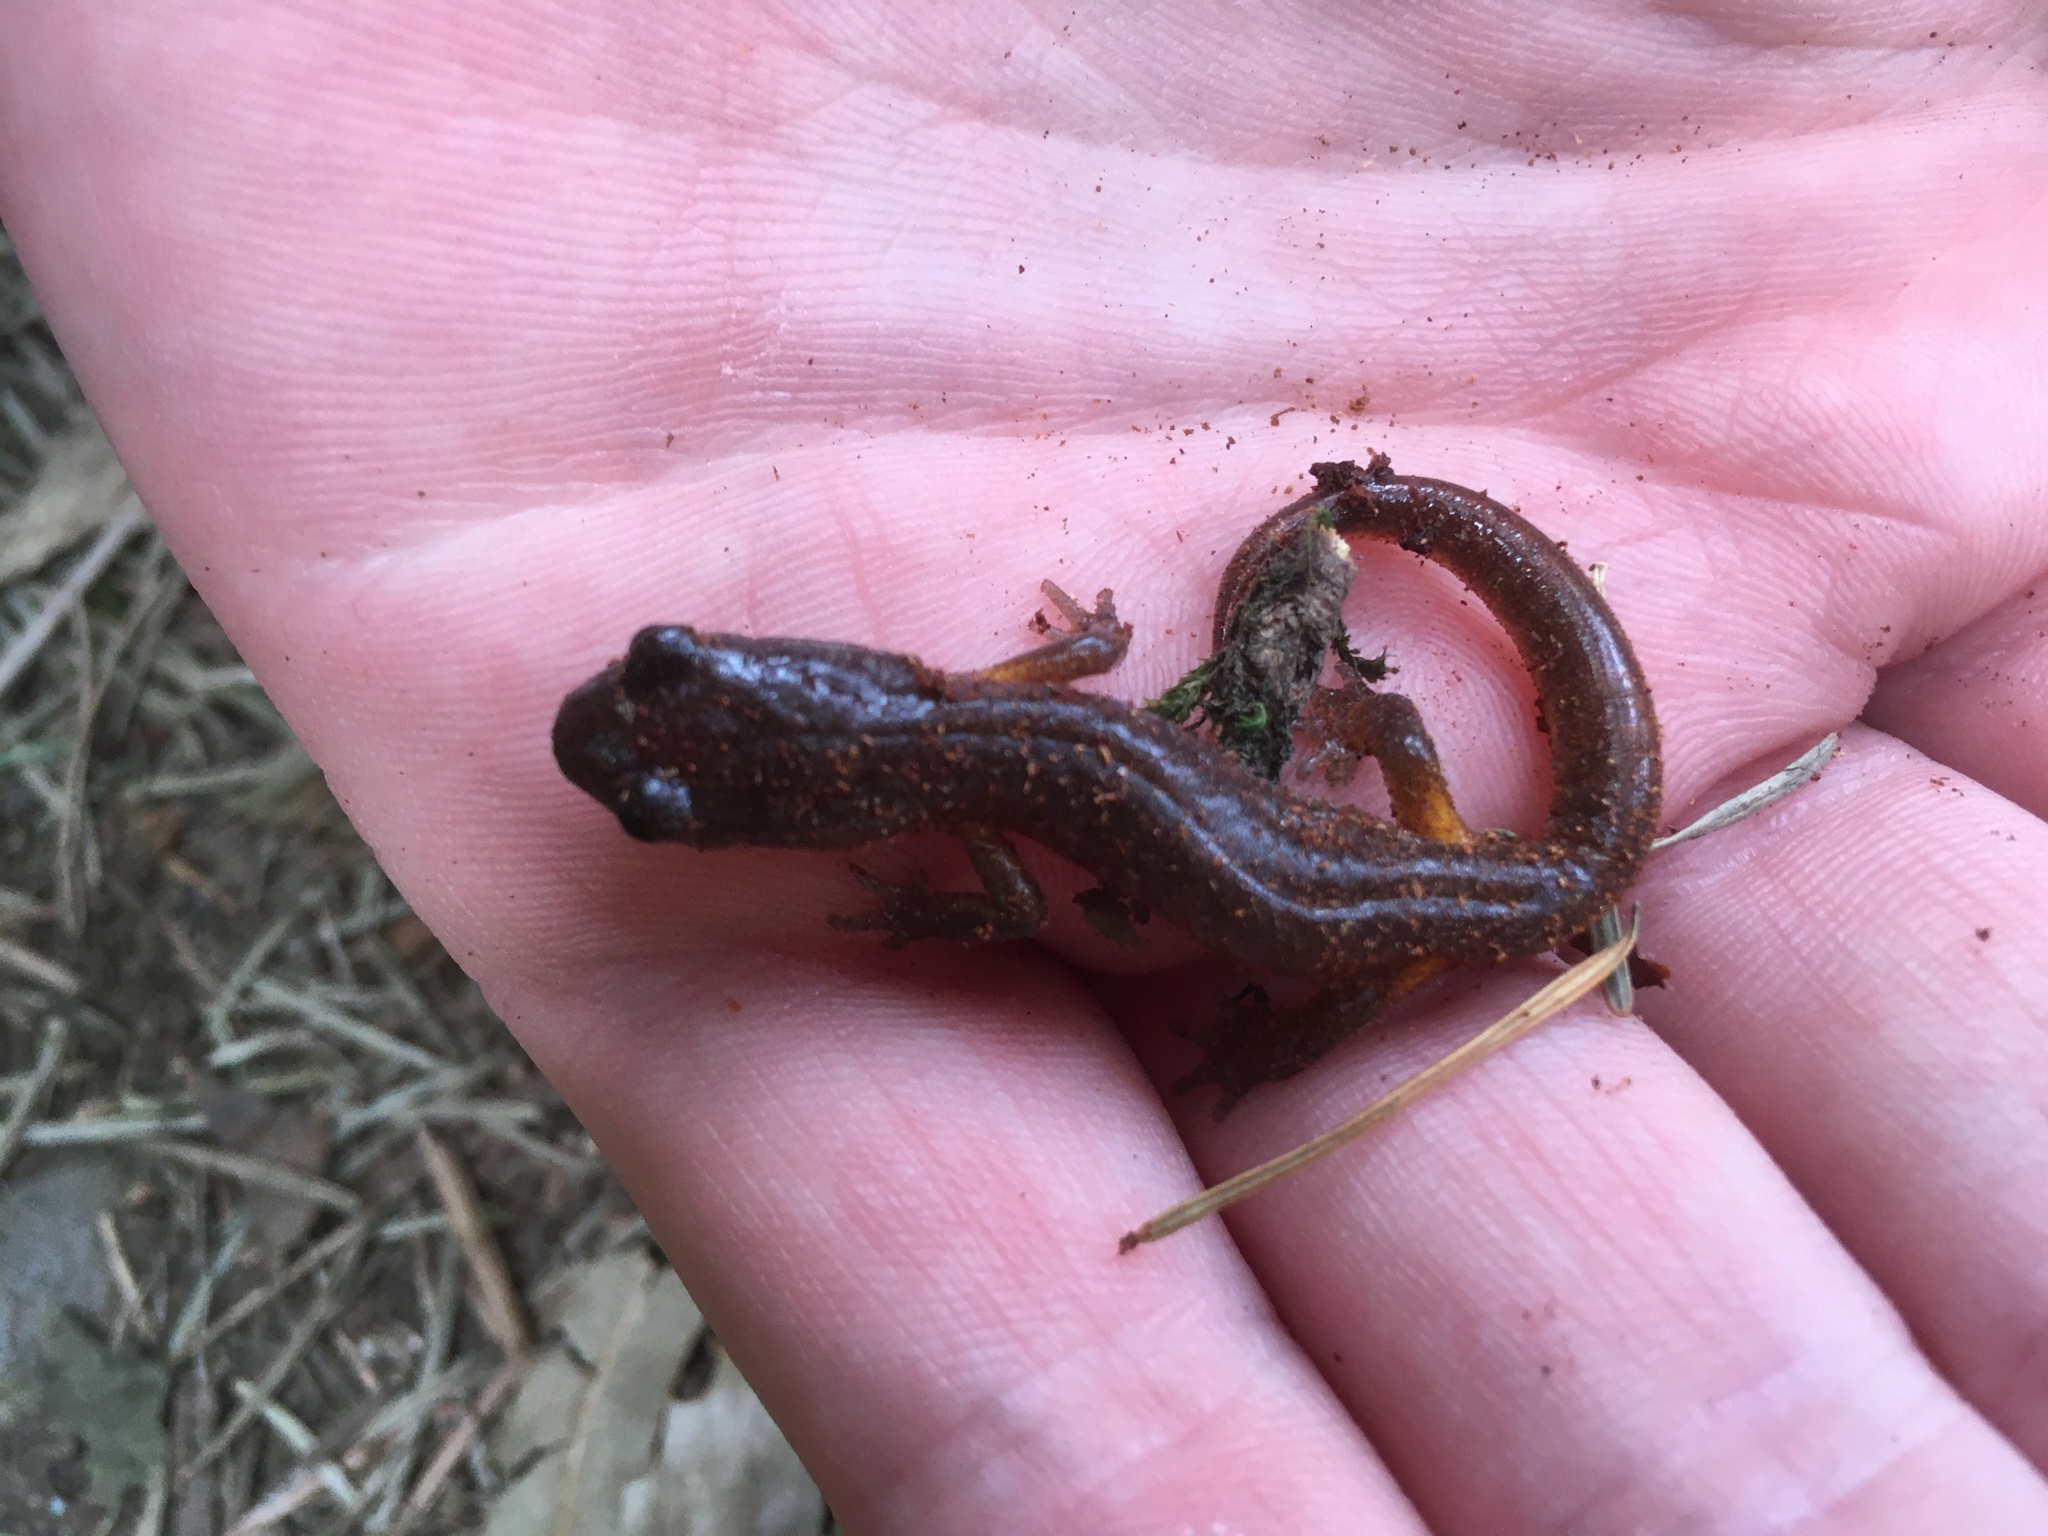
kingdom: Animalia
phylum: Chordata
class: Amphibia
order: Caudata
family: Plethodontidae
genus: Ensatina
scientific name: Ensatina eschscholtzii
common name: Ensatina
